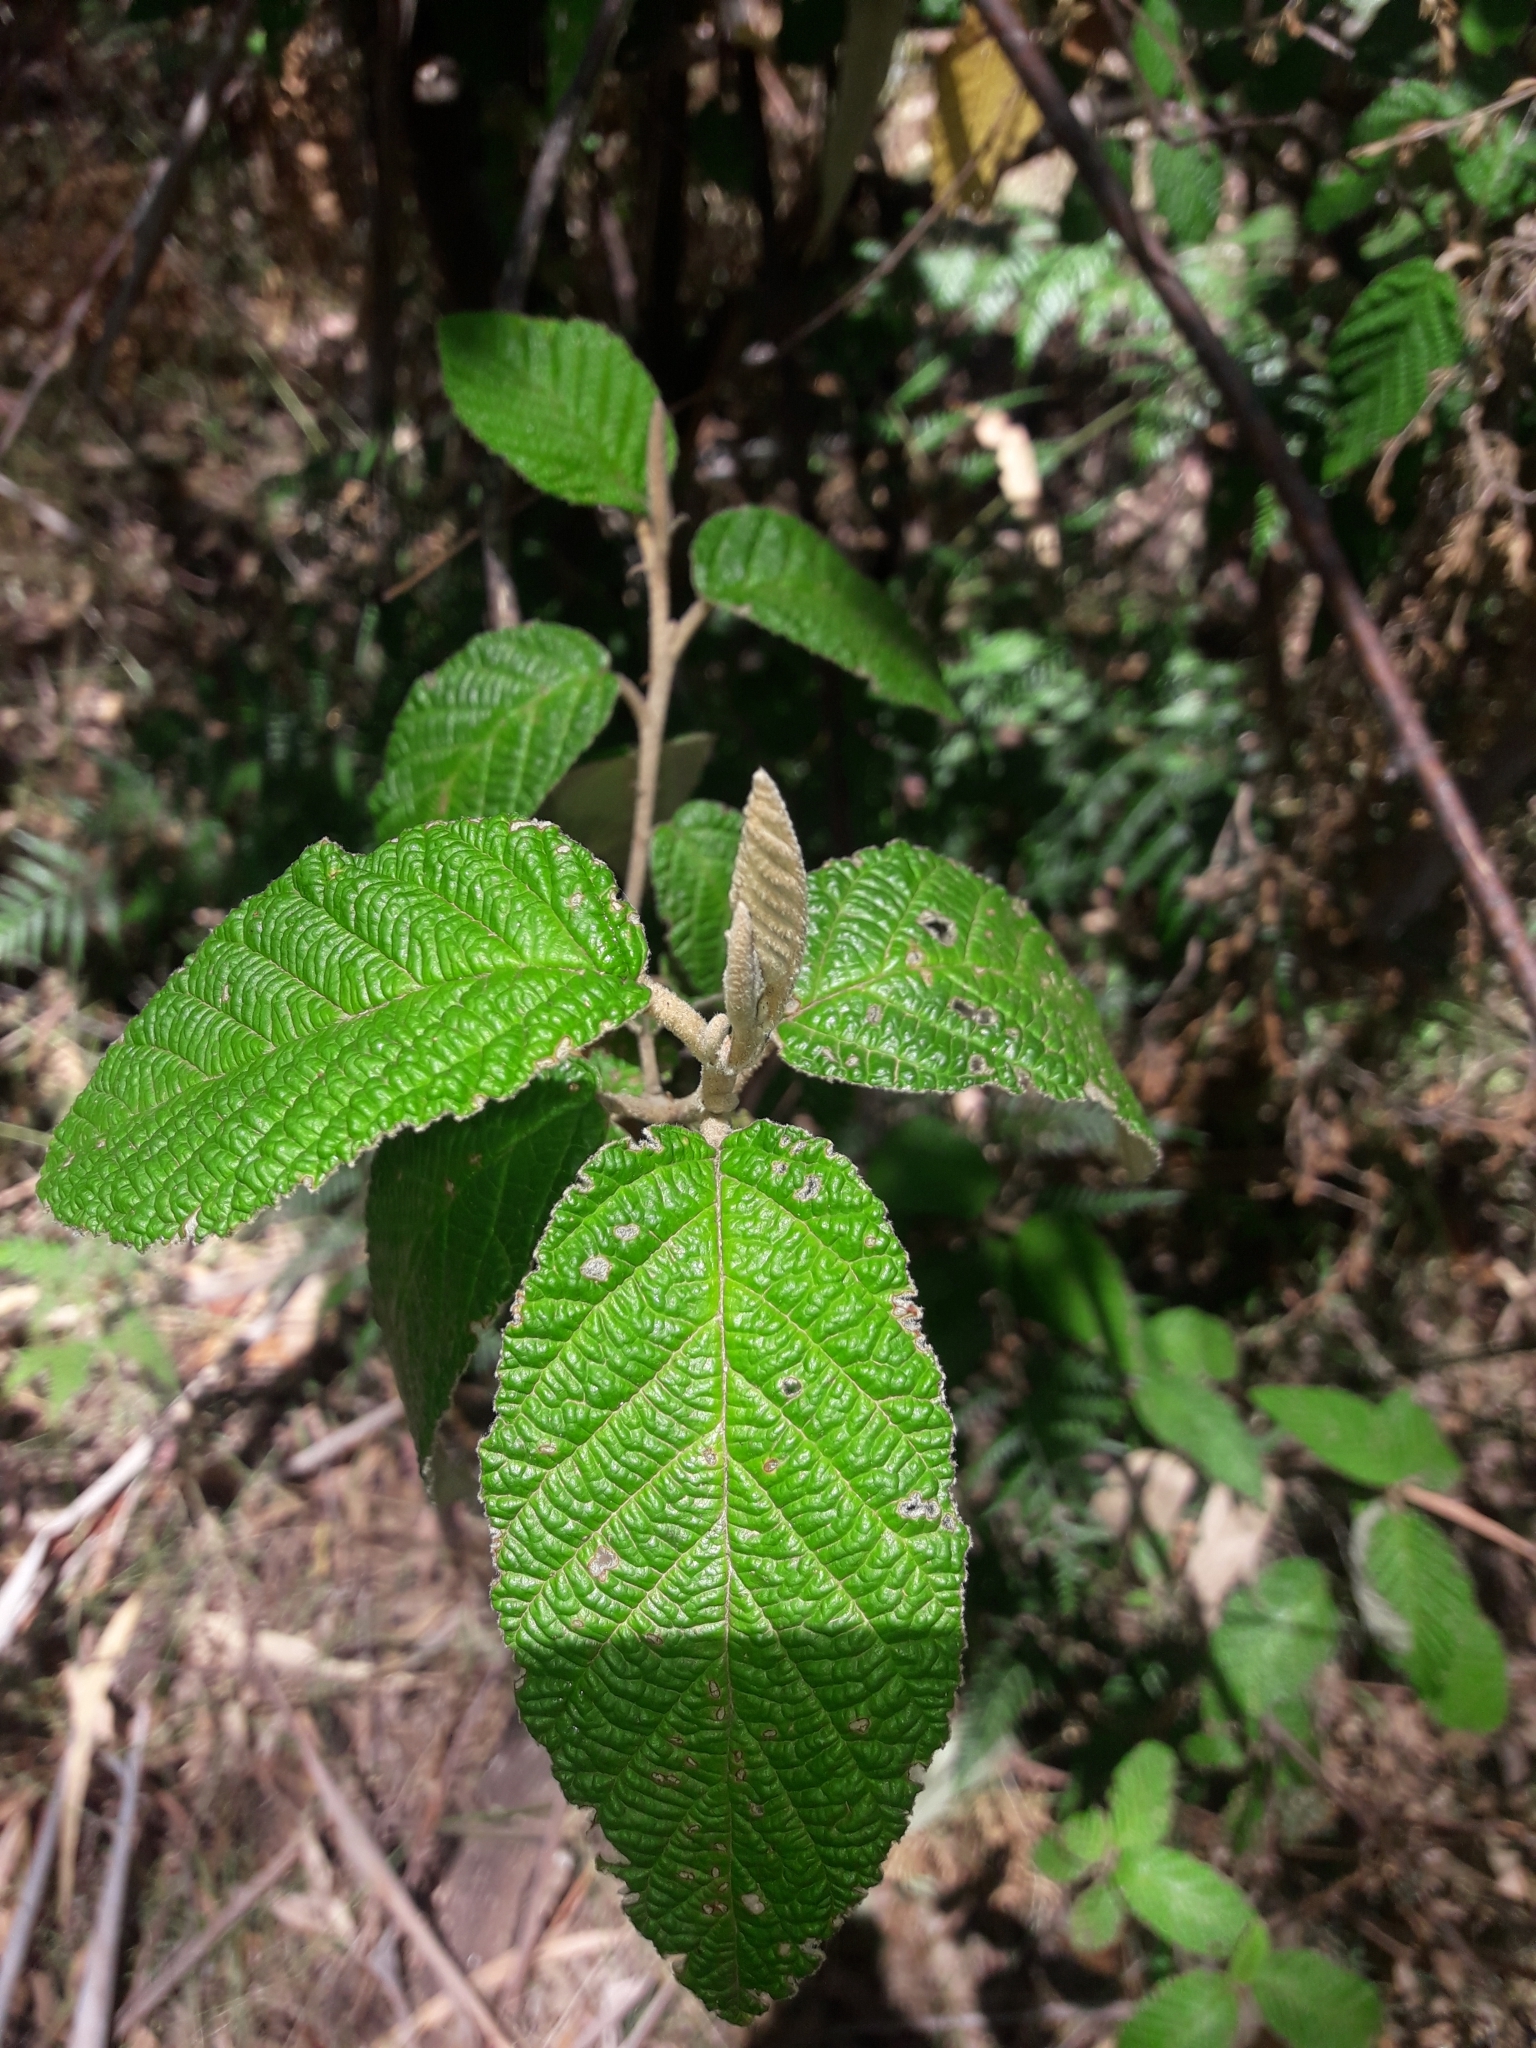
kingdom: Plantae
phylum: Tracheophyta
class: Magnoliopsida
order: Rosales
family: Rhamnaceae
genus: Pomaderris
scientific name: Pomaderris aspera
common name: Hazel pomaderris
